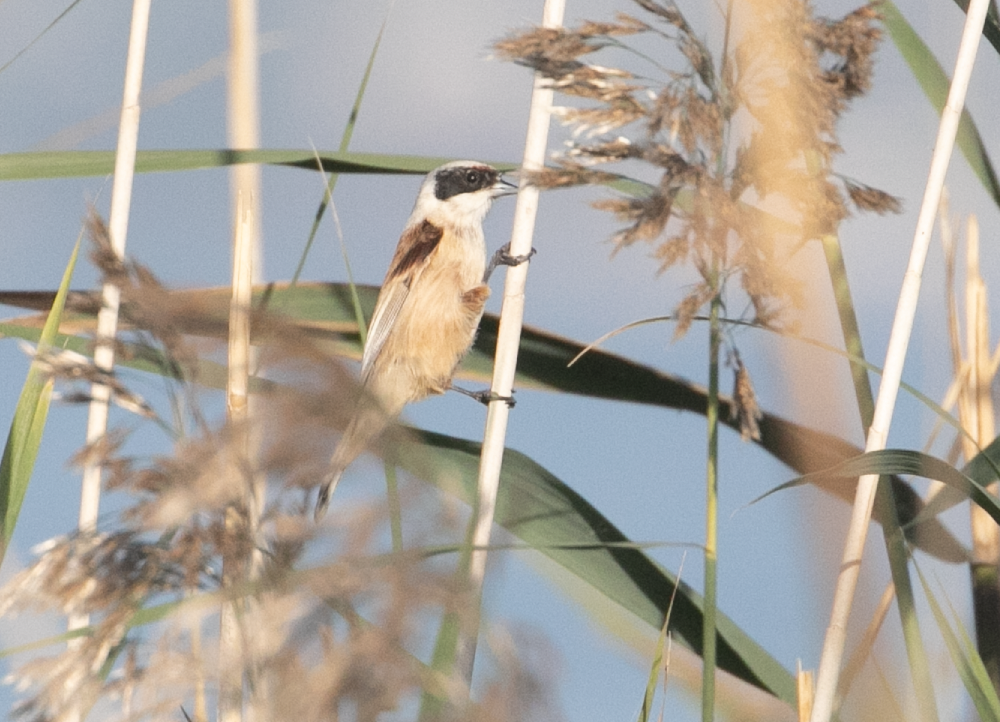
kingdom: Animalia
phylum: Chordata
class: Aves
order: Passeriformes
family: Remizidae
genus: Remiz
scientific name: Remiz pendulinus
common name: Eurasian penduline tit
